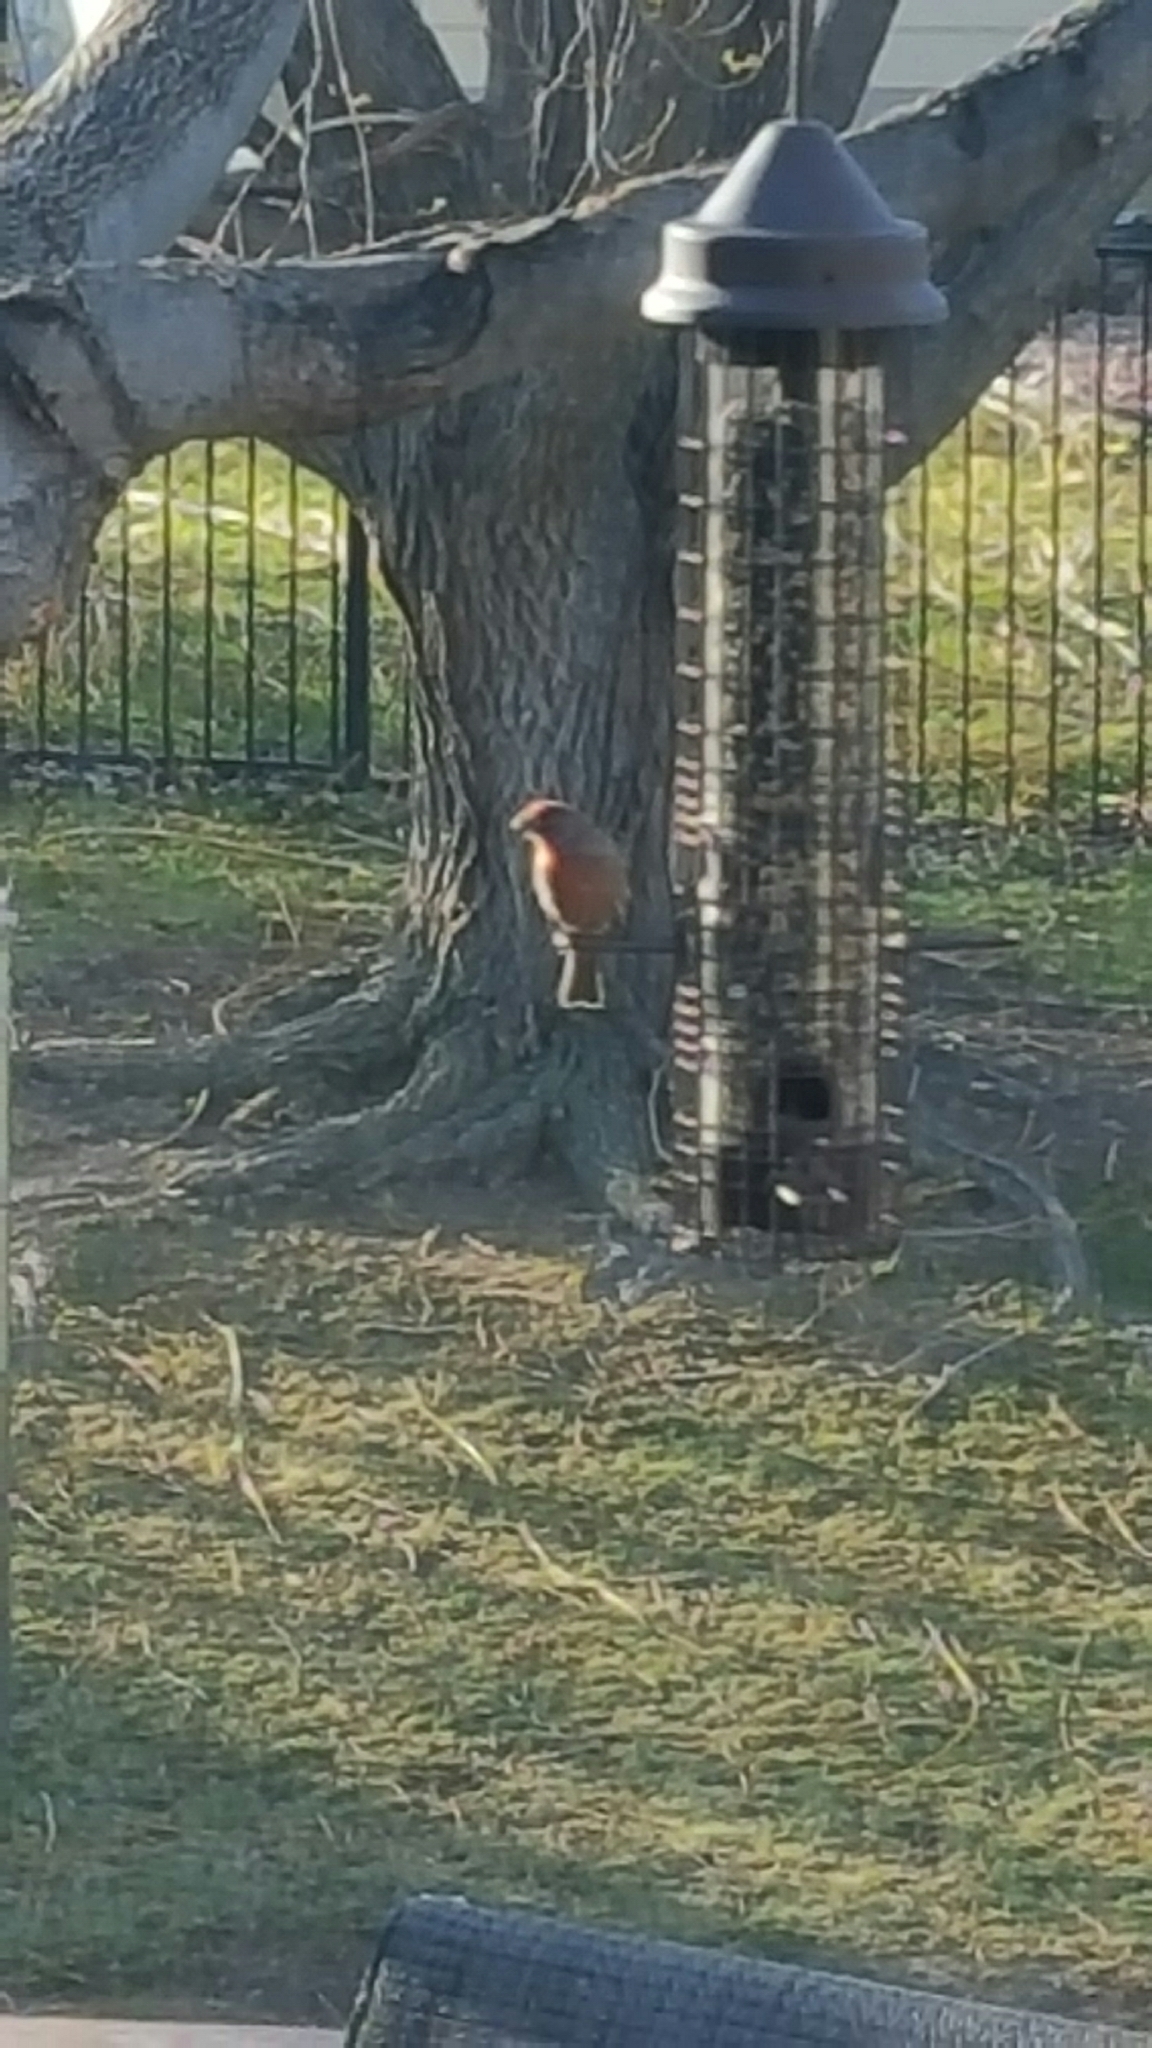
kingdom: Animalia
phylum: Chordata
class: Aves
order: Passeriformes
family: Fringillidae
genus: Haemorhous
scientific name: Haemorhous mexicanus
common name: House finch
